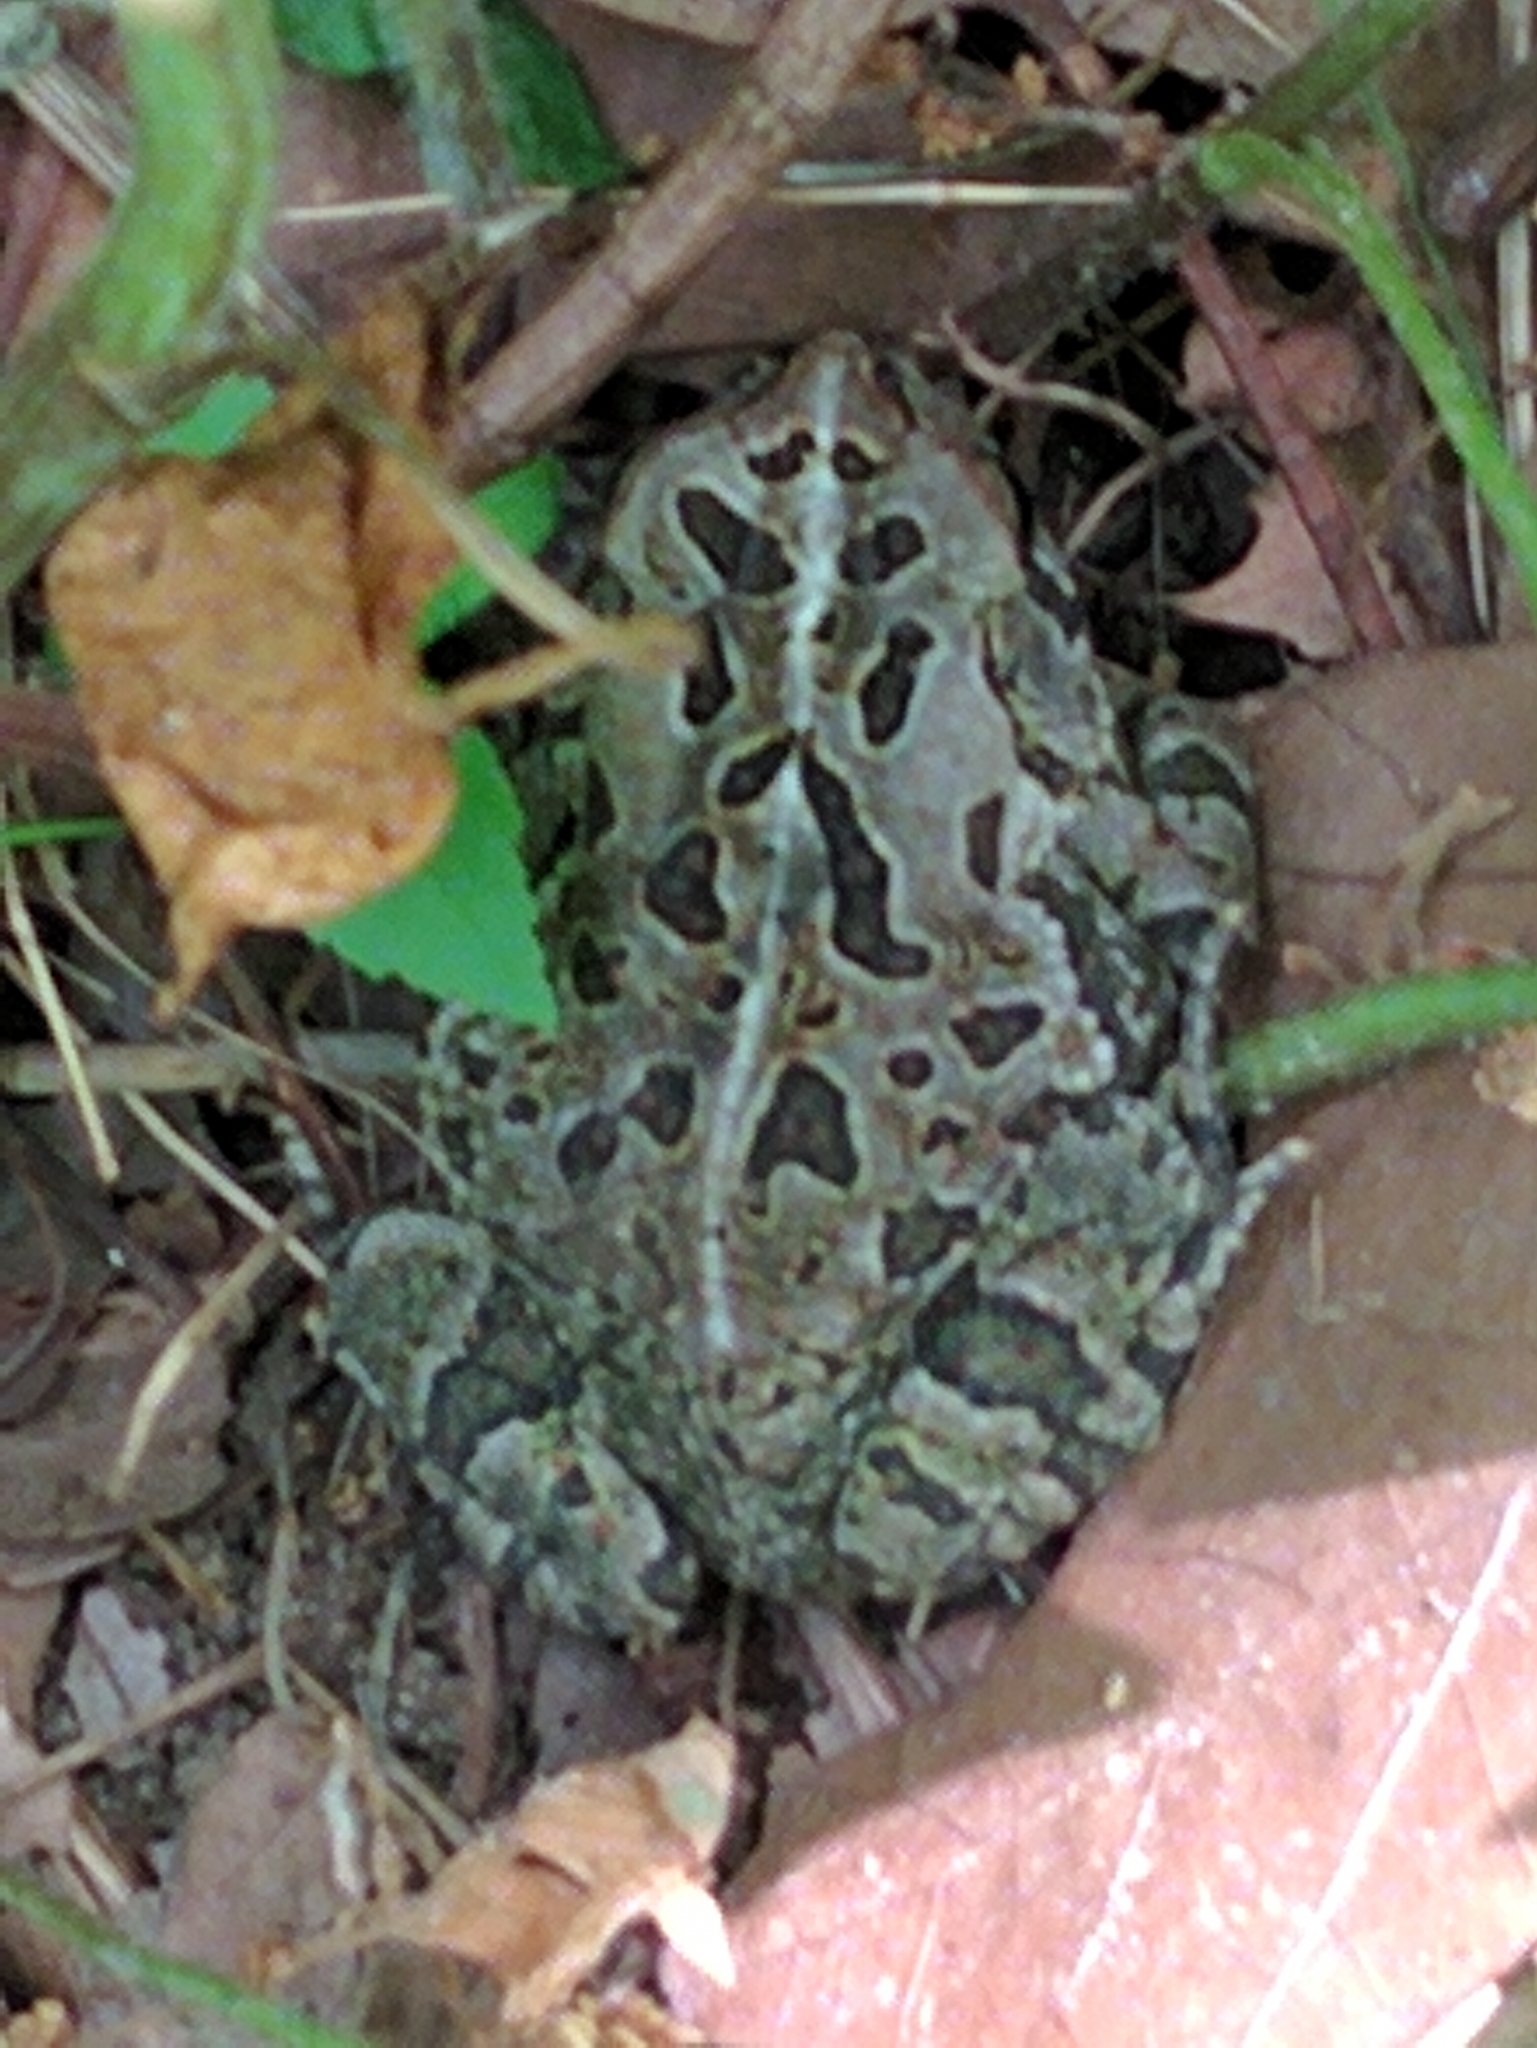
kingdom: Animalia
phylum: Chordata
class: Amphibia
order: Anura
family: Bufonidae
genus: Anaxyrus
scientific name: Anaxyrus fowleri
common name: Fowler's toad
